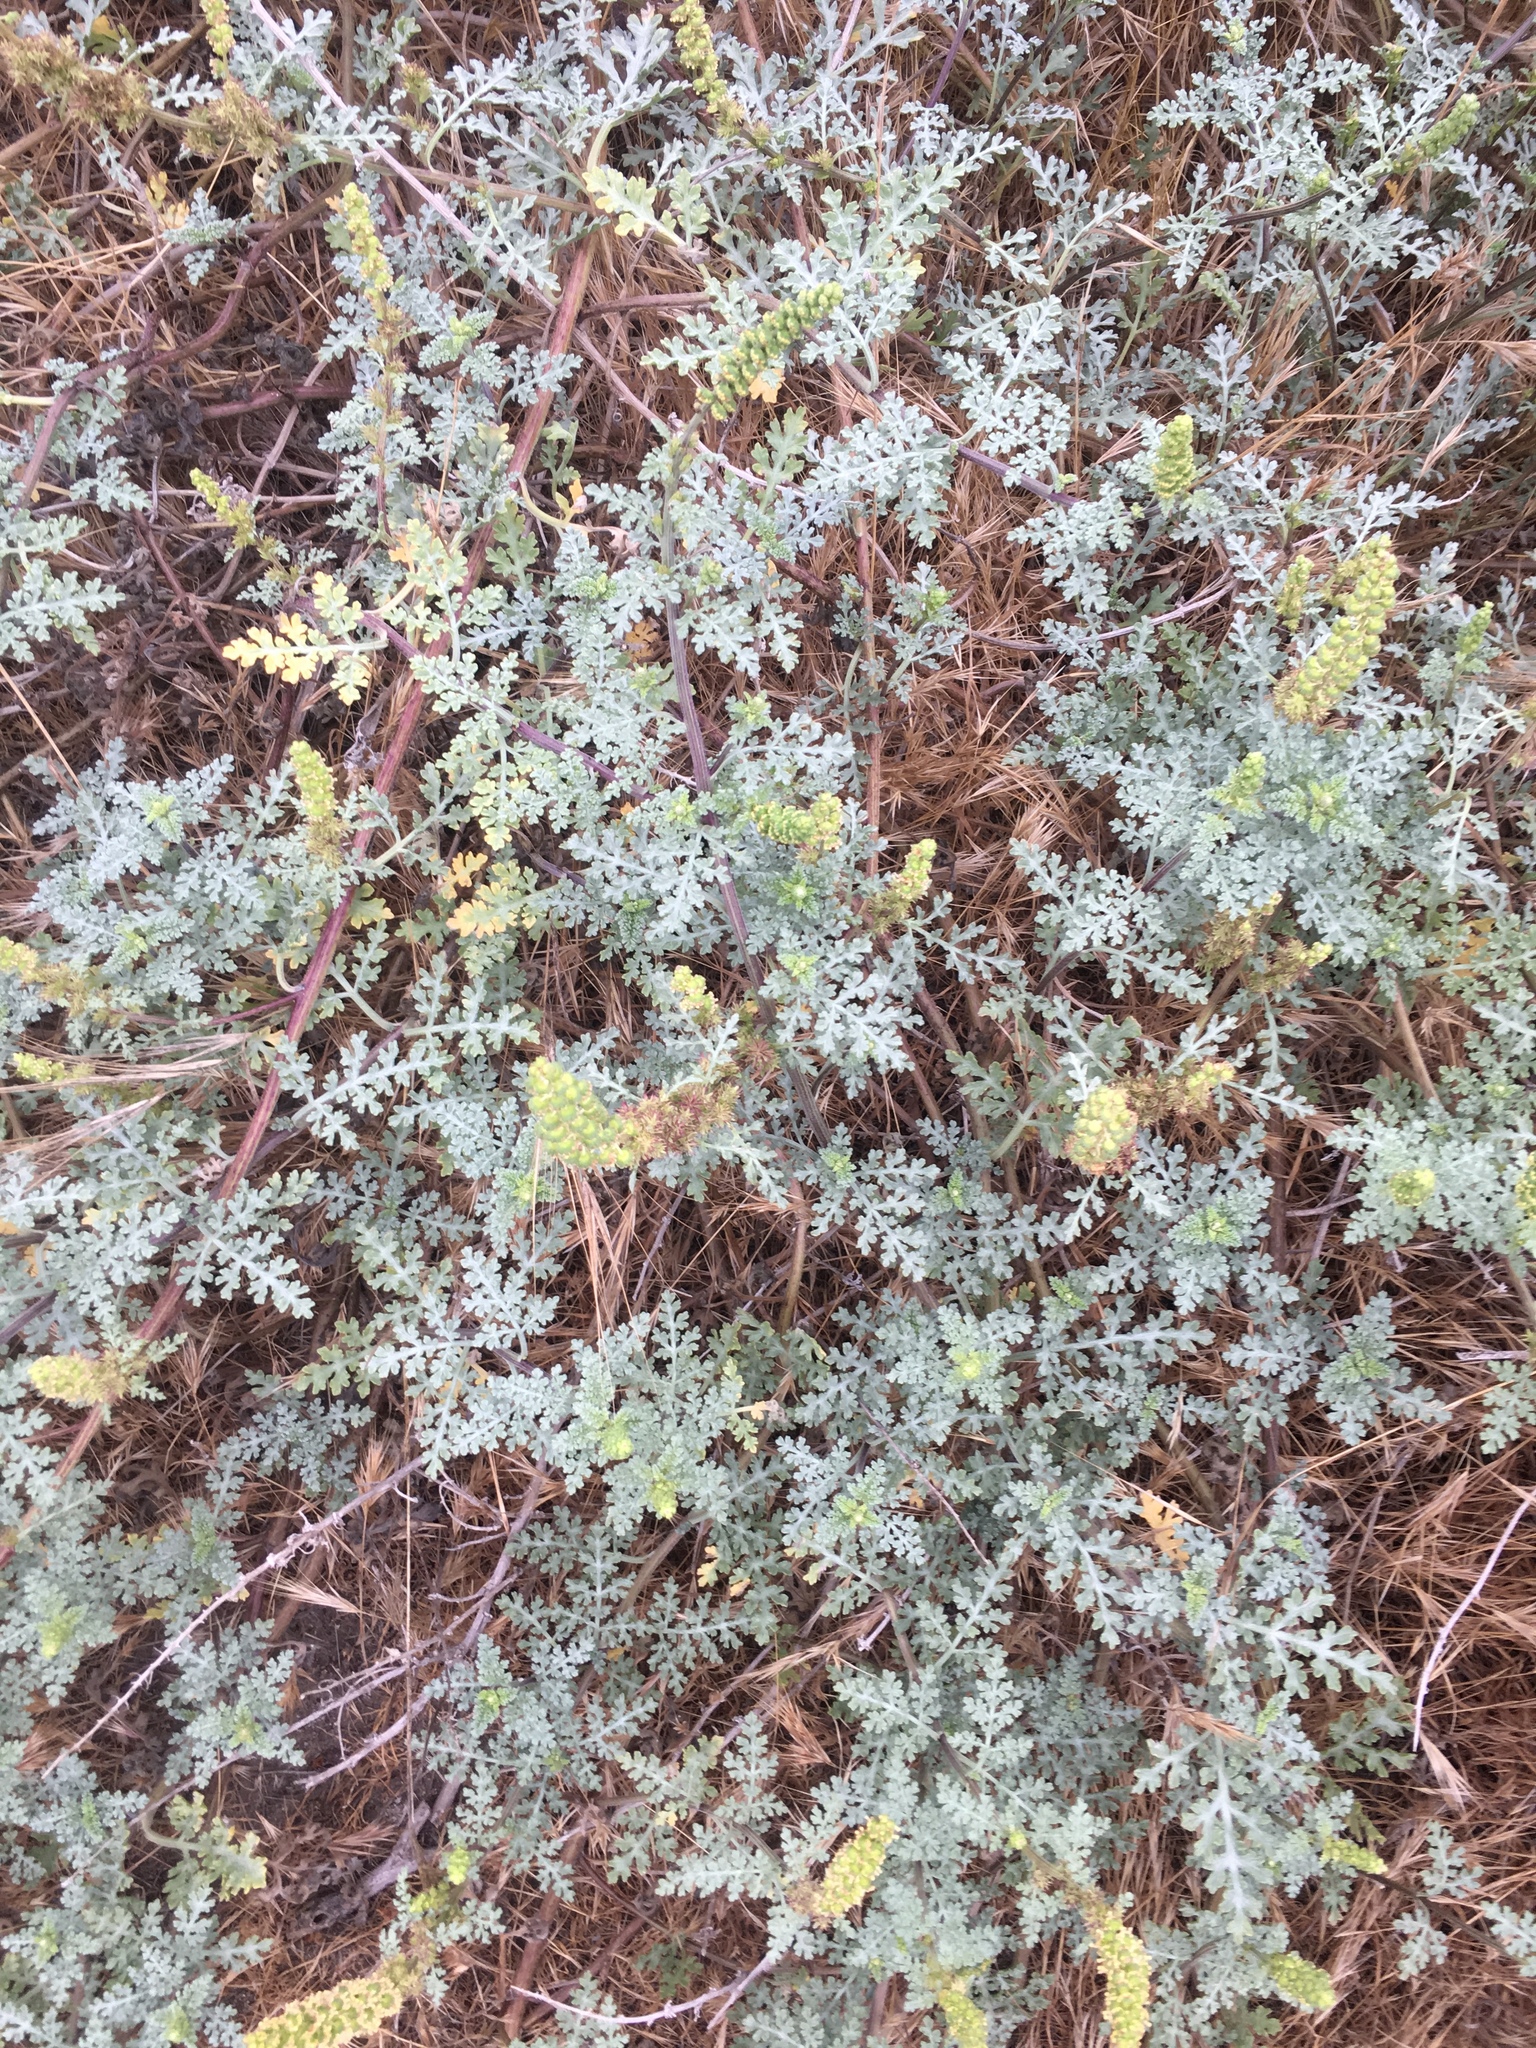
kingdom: Plantae
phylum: Tracheophyta
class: Magnoliopsida
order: Asterales
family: Asteraceae
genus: Ambrosia
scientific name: Ambrosia chamissonis
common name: Beachbur
